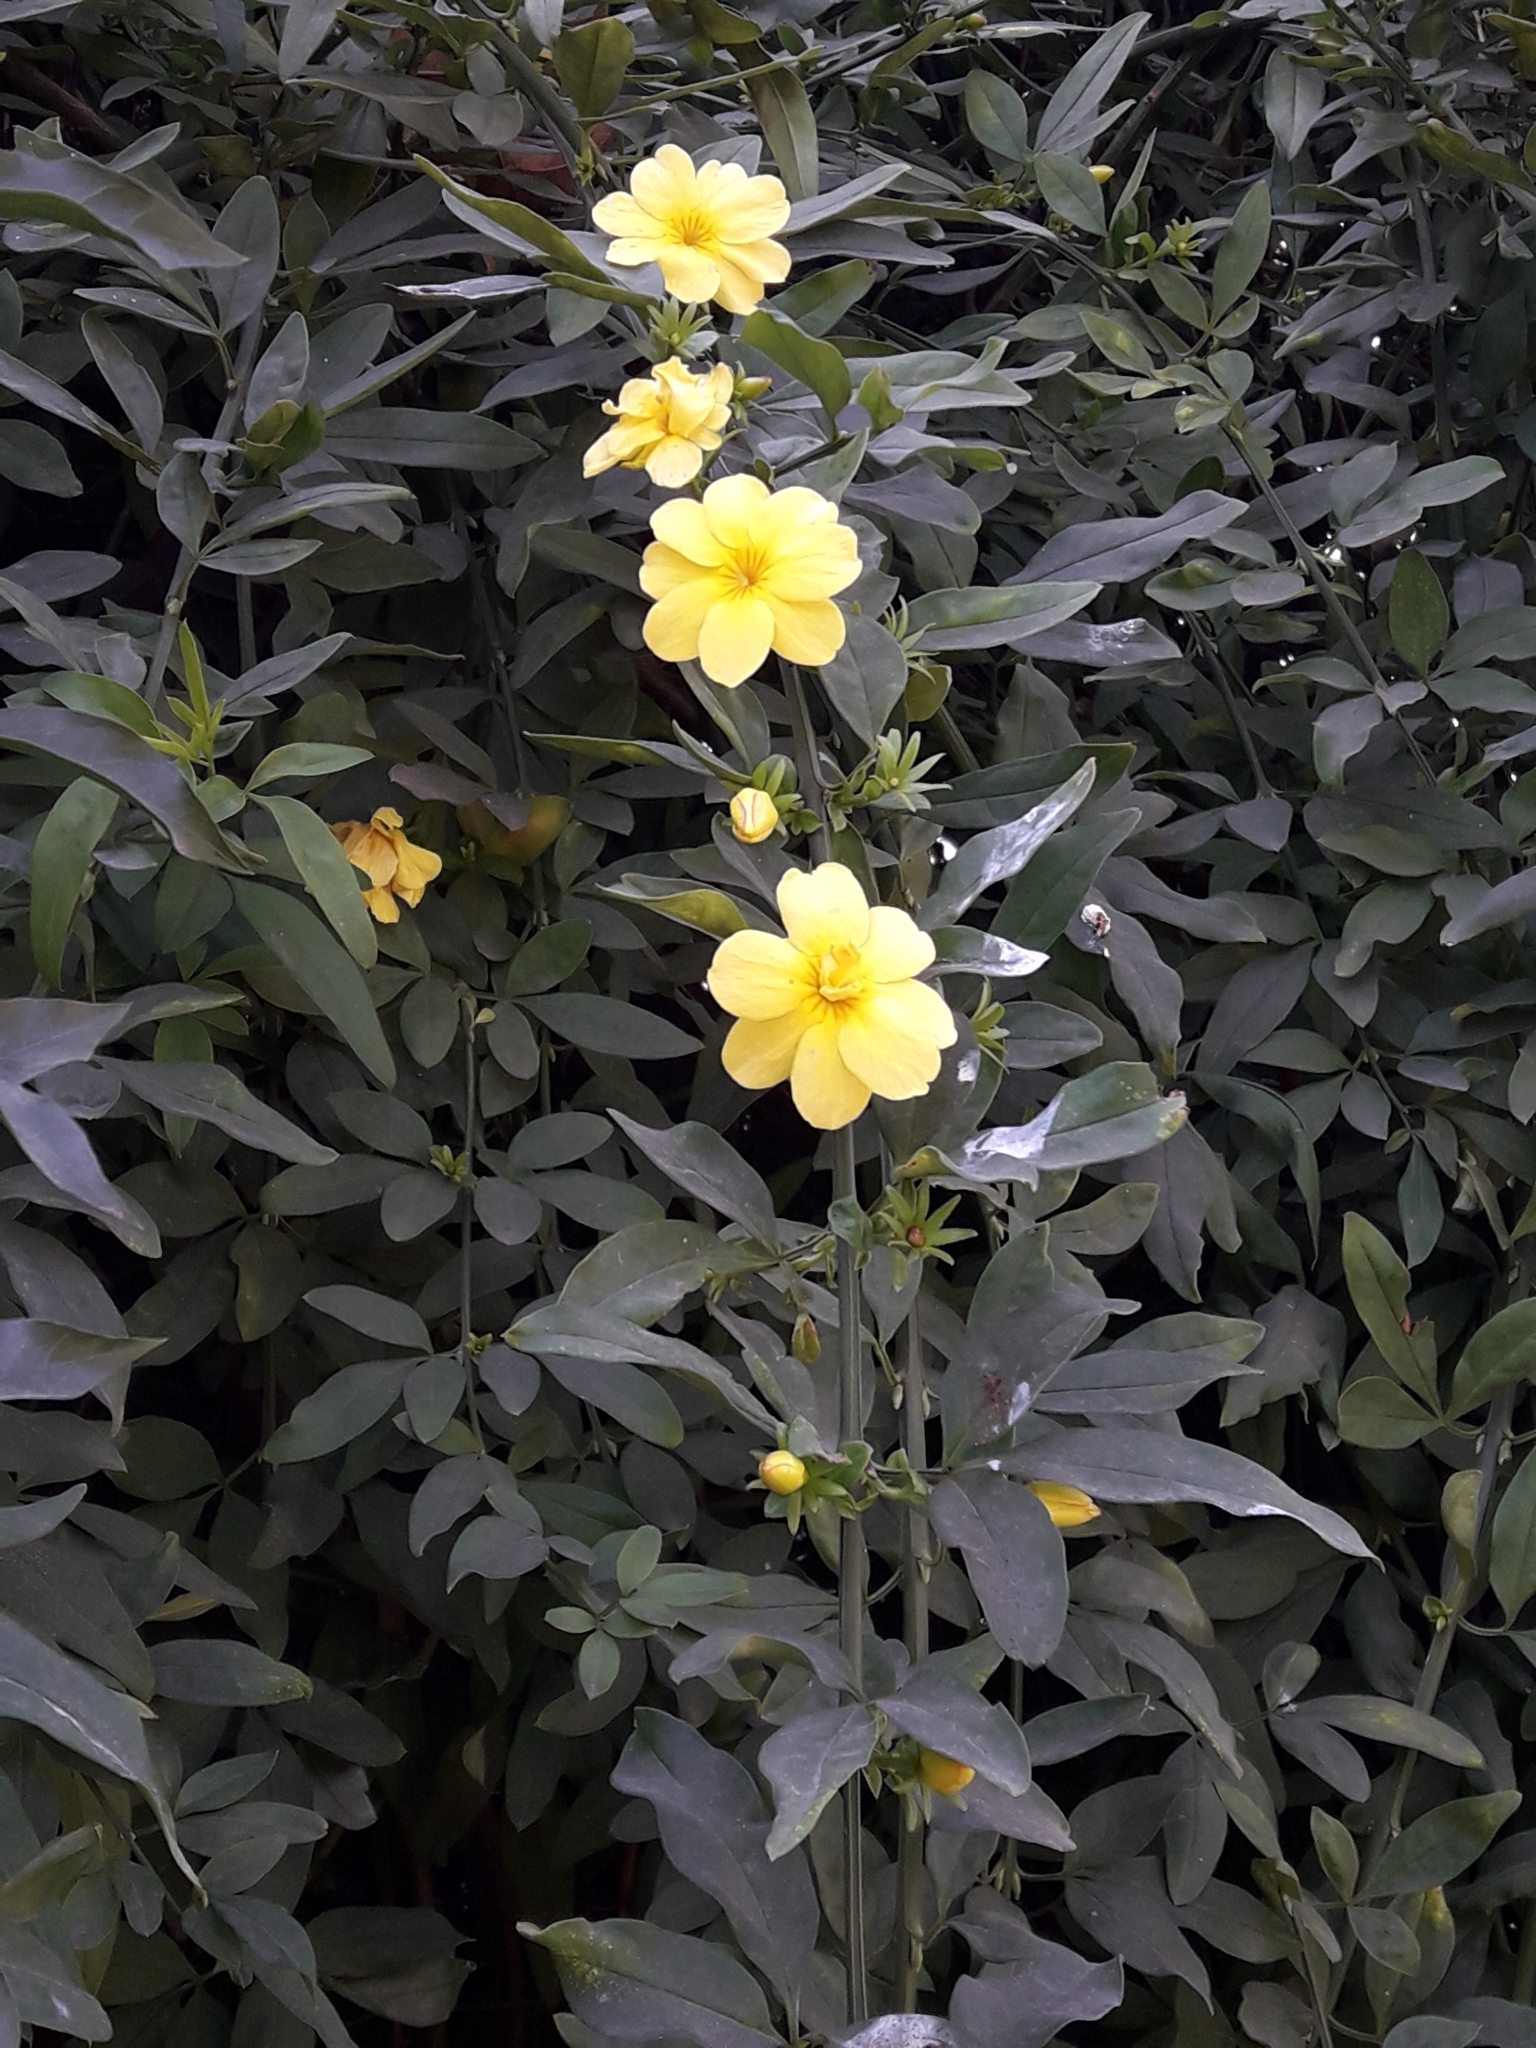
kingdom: Plantae
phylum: Tracheophyta
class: Magnoliopsida
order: Lamiales
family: Oleaceae
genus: Jasminum
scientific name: Jasminum mesnyi
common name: Japanese jasmine
